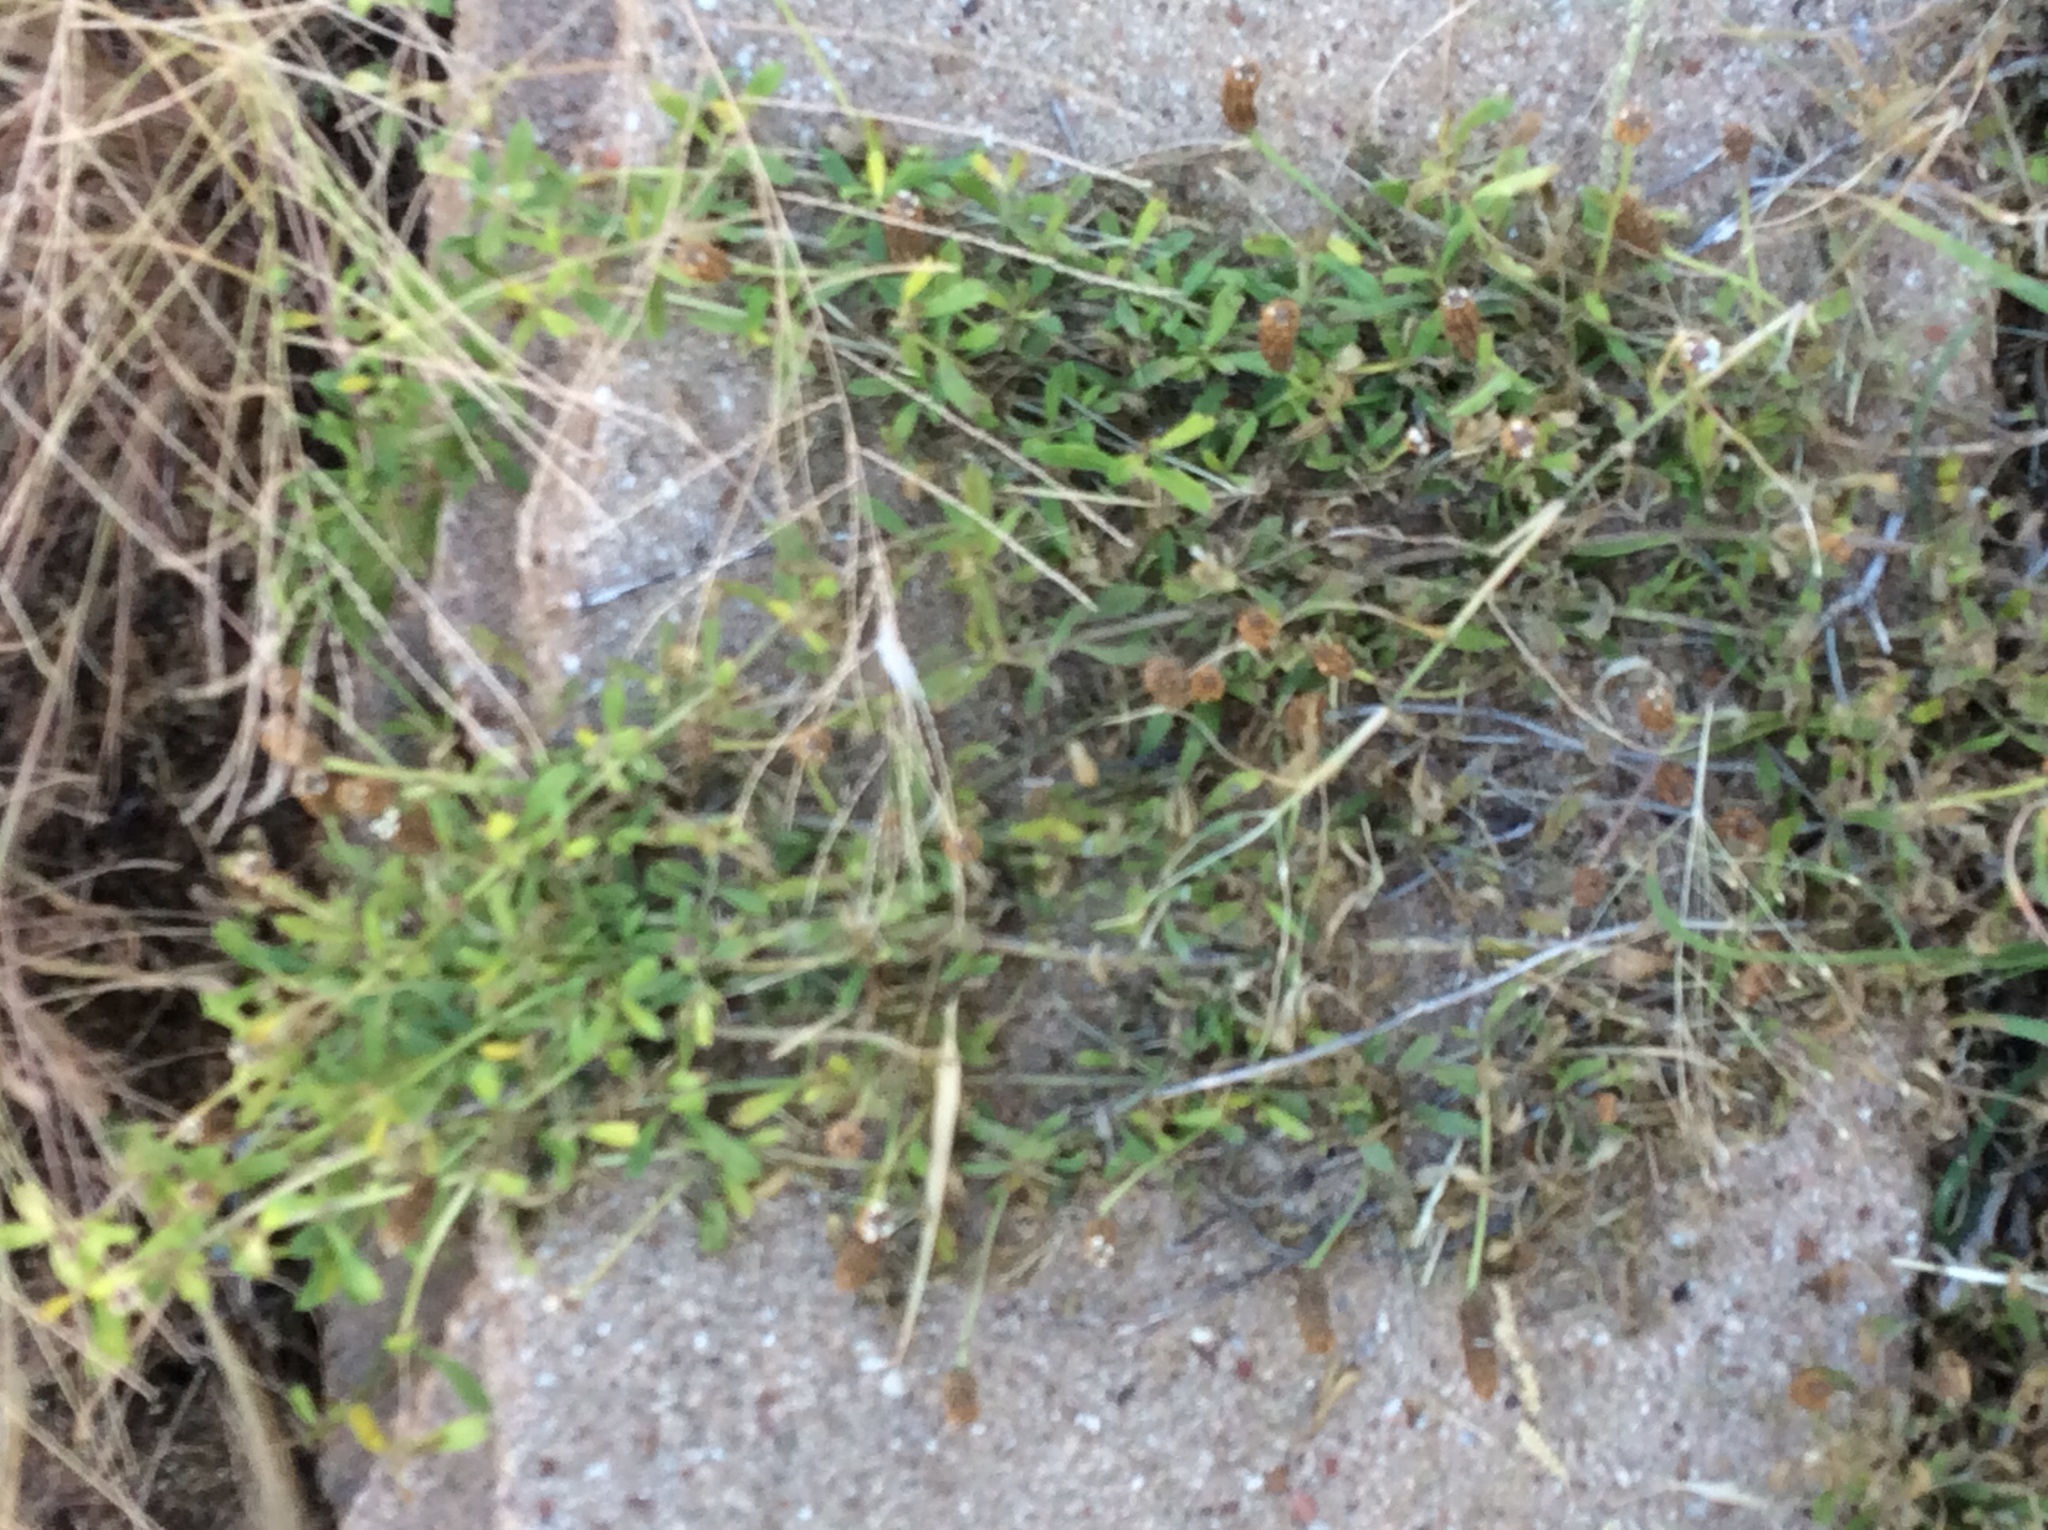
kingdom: Plantae
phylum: Tracheophyta
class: Magnoliopsida
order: Lamiales
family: Verbenaceae
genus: Phyla
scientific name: Phyla nodiflora
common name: Frogfruit
